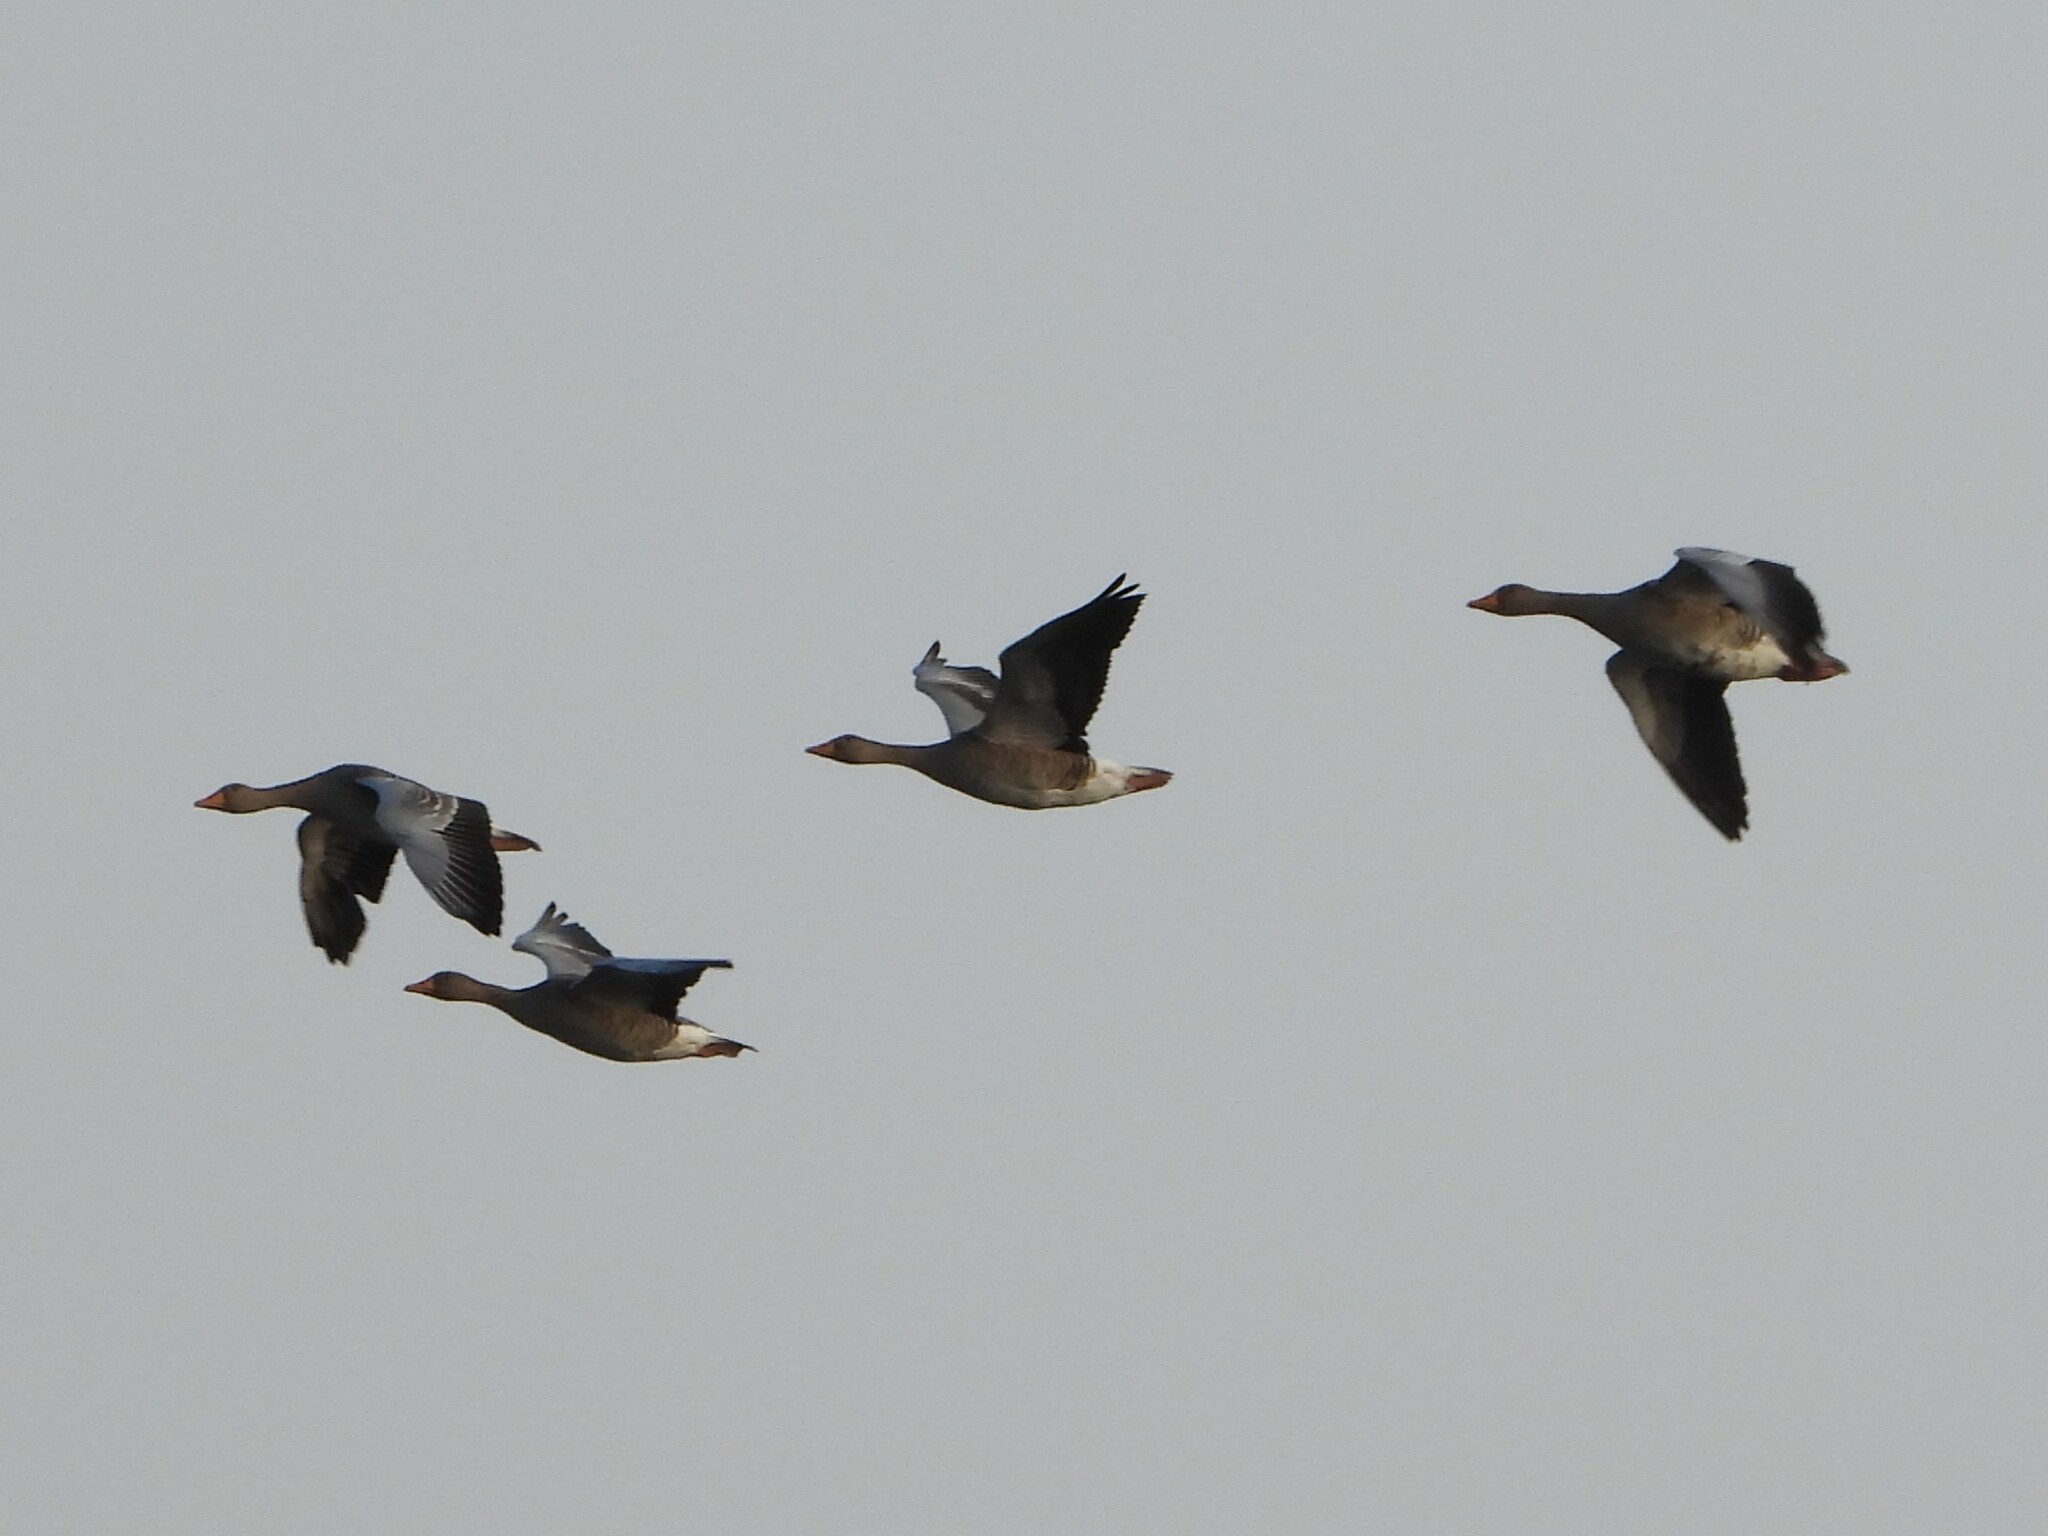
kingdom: Animalia
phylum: Chordata
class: Aves
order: Anseriformes
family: Anatidae
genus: Anser
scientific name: Anser anser
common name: Greylag goose
